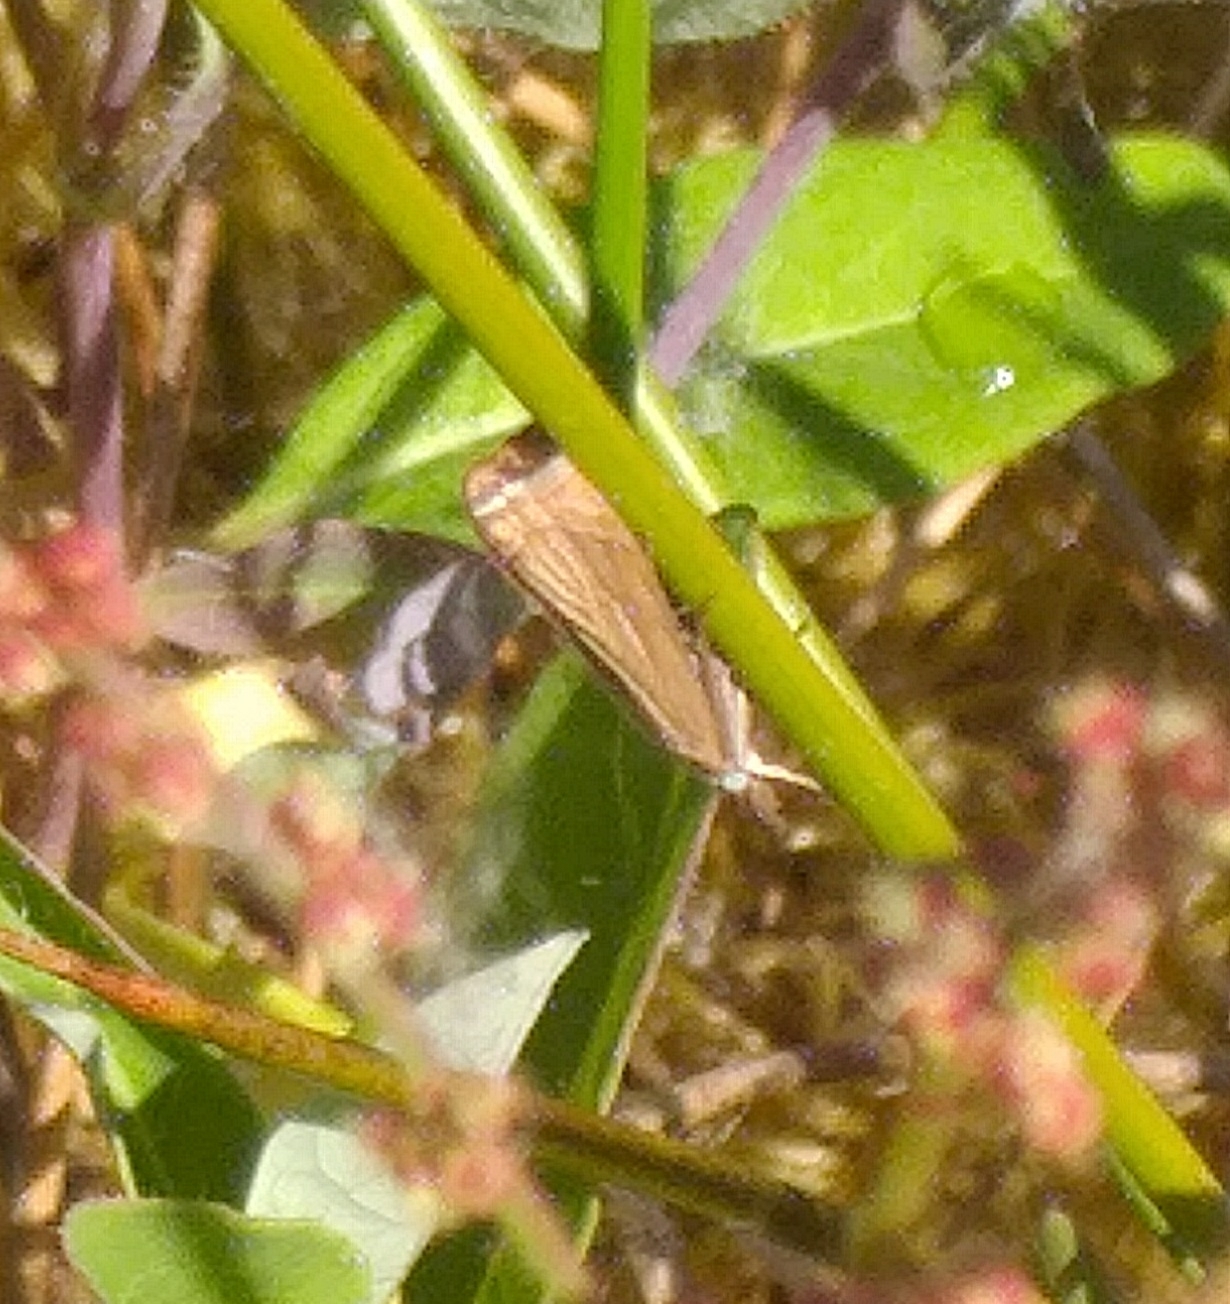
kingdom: Animalia
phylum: Arthropoda
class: Insecta
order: Lepidoptera
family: Crambidae
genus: Chrysoteuchia
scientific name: Chrysoteuchia culmella
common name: Garden grass-veneer
